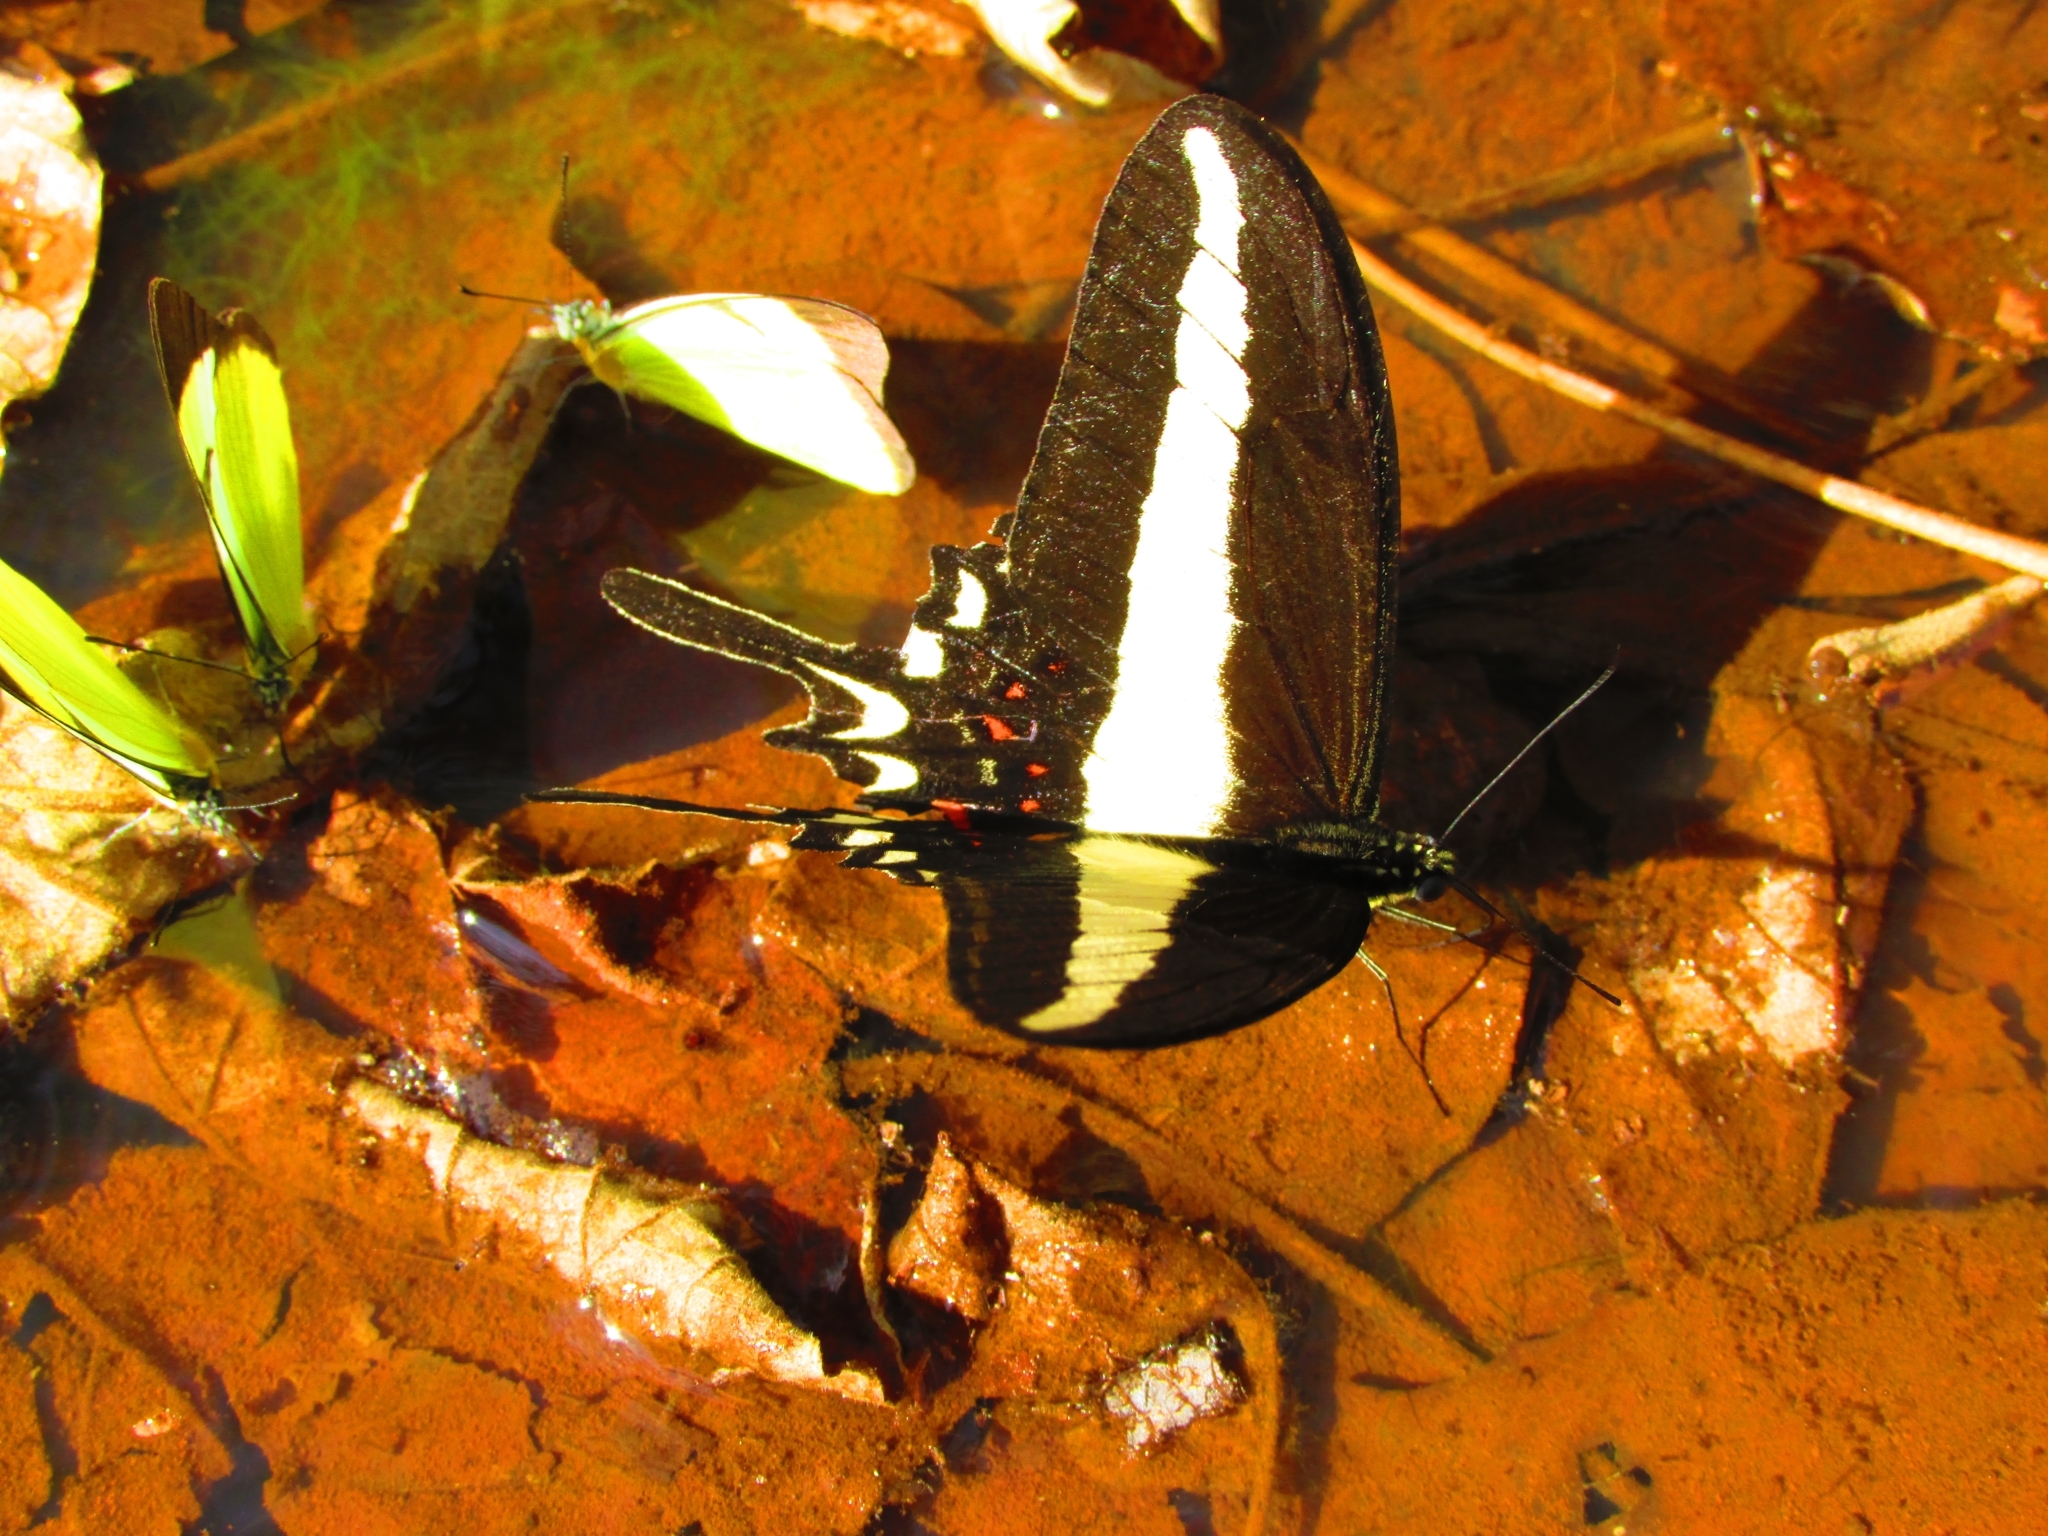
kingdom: Animalia
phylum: Arthropoda
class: Insecta
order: Lepidoptera
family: Papilionidae
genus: Heraclides
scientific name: Heraclides hectorides
